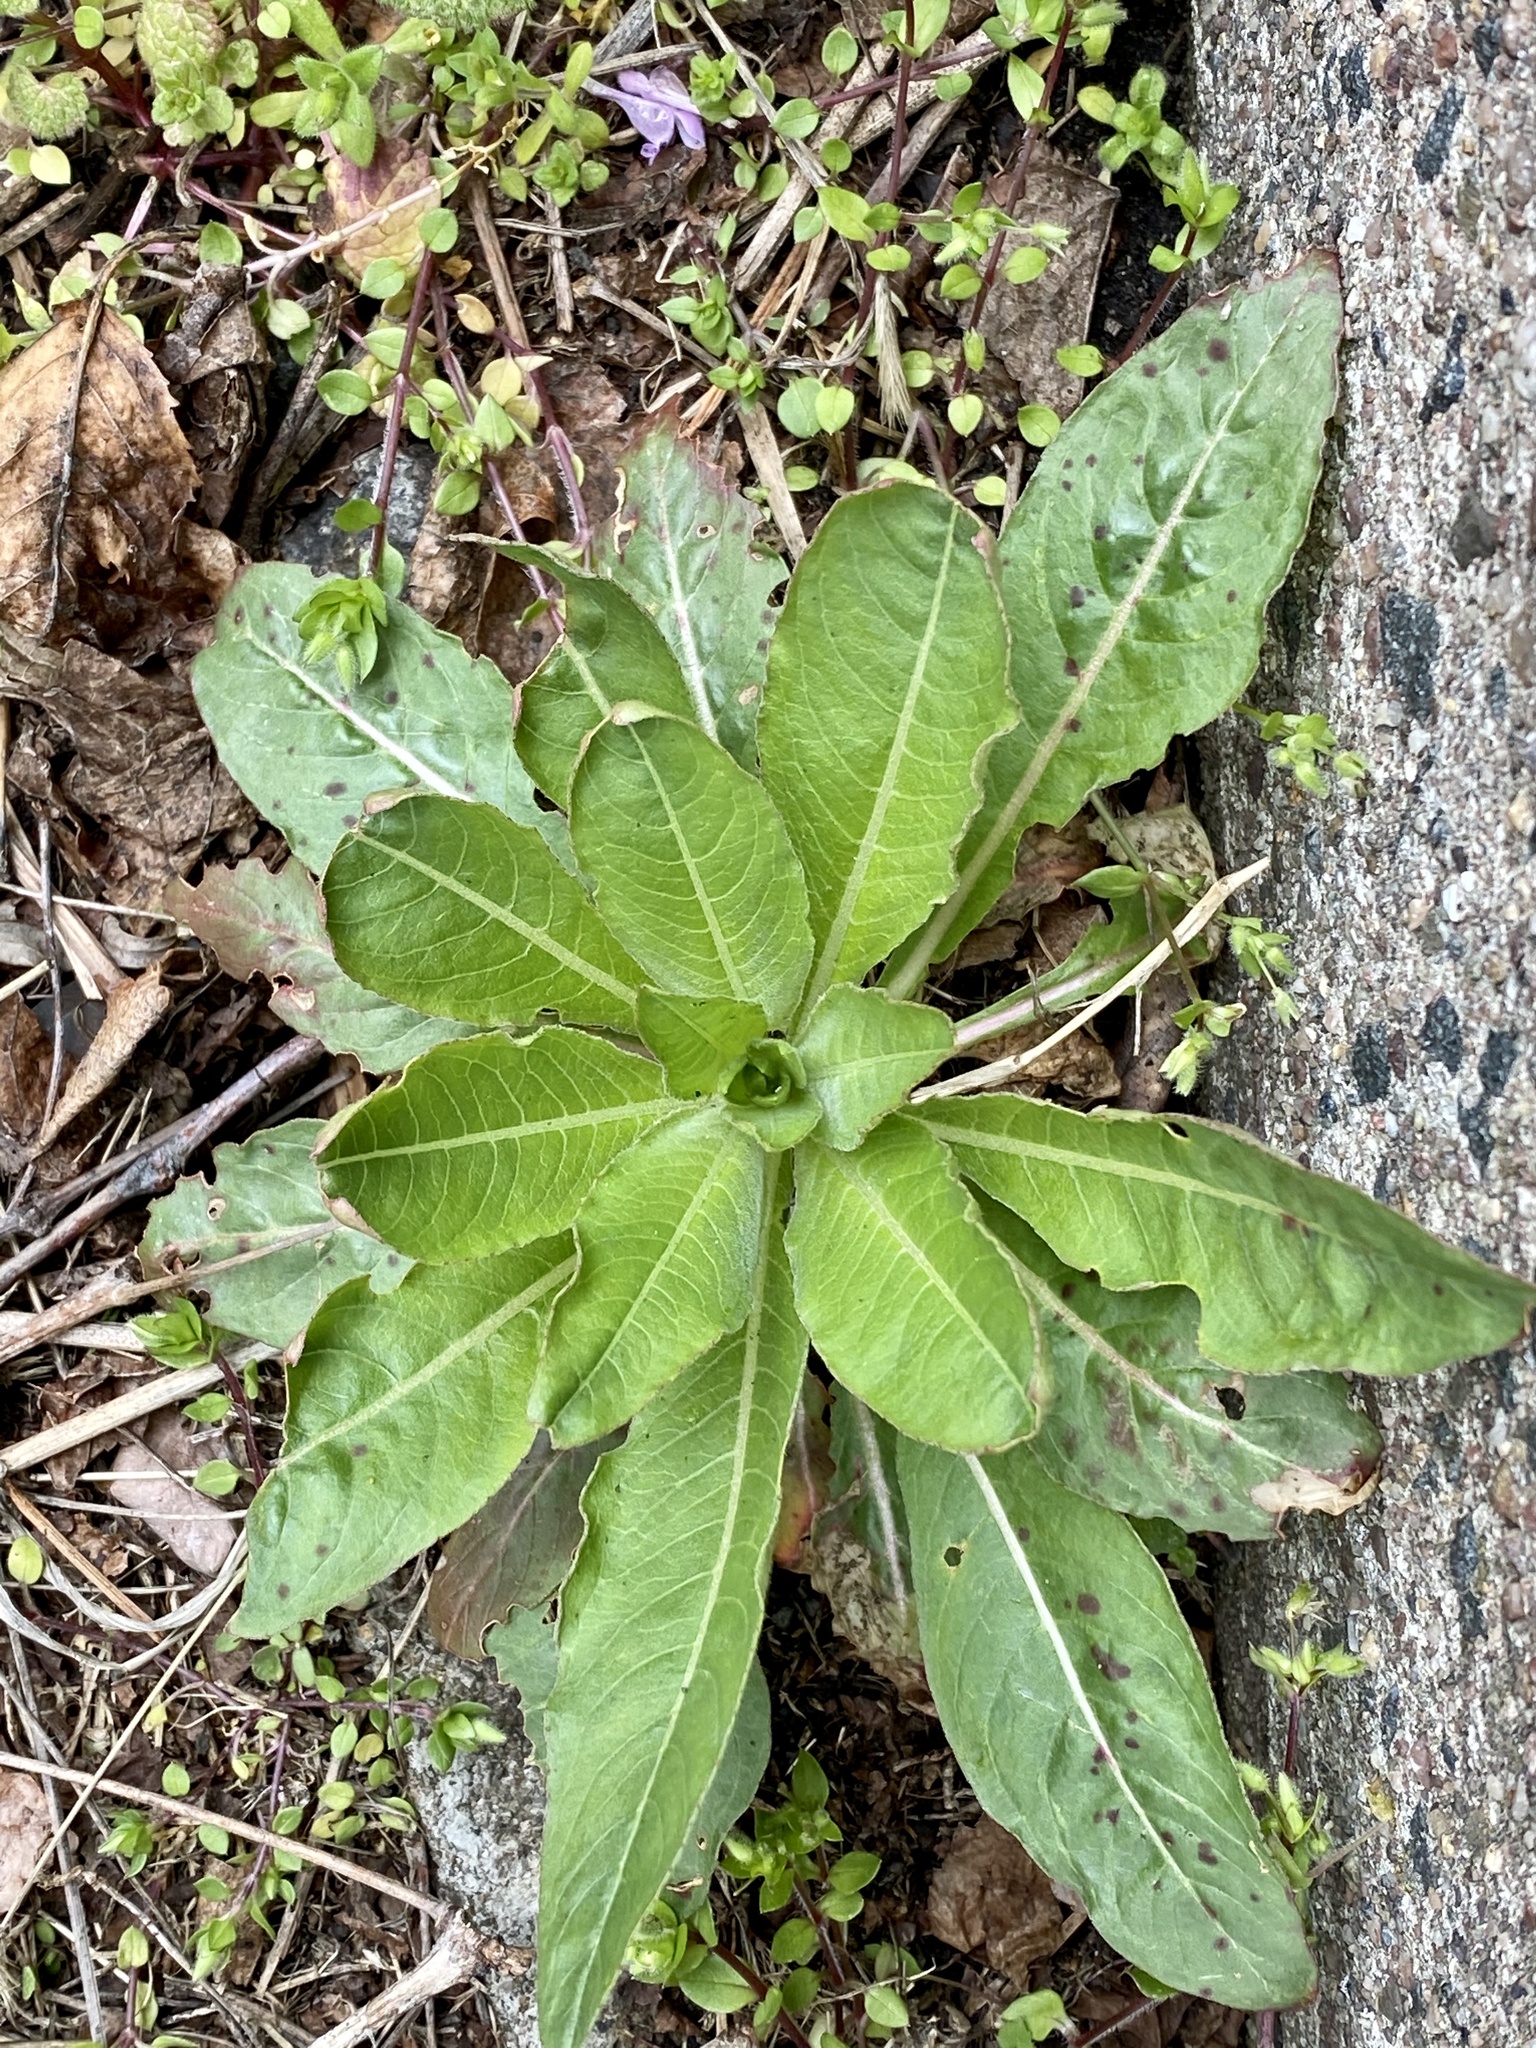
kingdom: Plantae
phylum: Tracheophyta
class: Magnoliopsida
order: Myrtales
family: Onagraceae
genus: Oenothera
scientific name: Oenothera biennis
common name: Common evening-primrose
